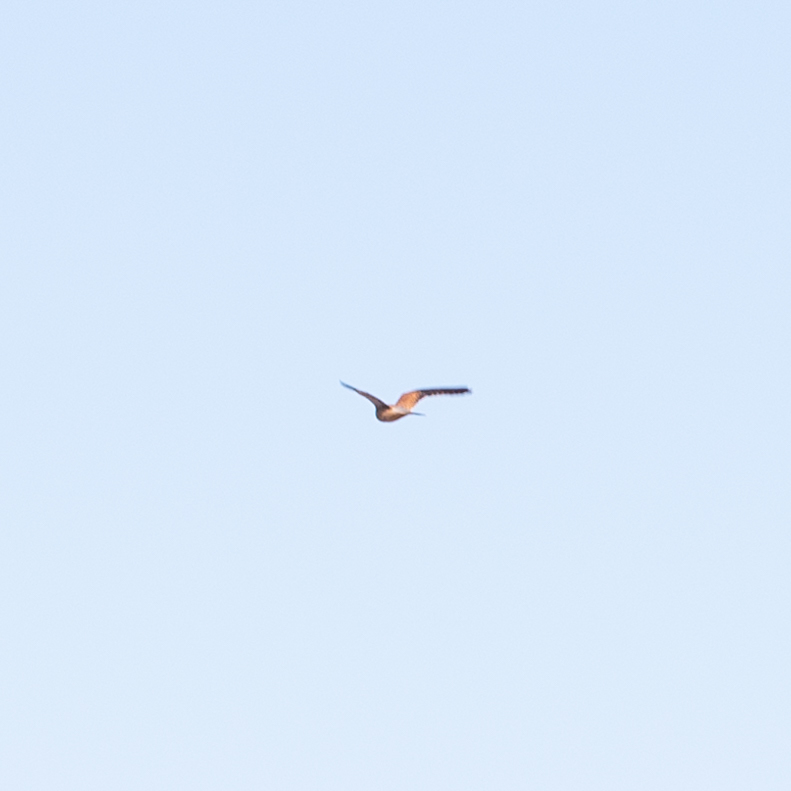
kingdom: Animalia
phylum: Chordata
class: Aves
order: Falconiformes
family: Falconidae
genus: Falco
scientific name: Falco tinnunculus
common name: Common kestrel
